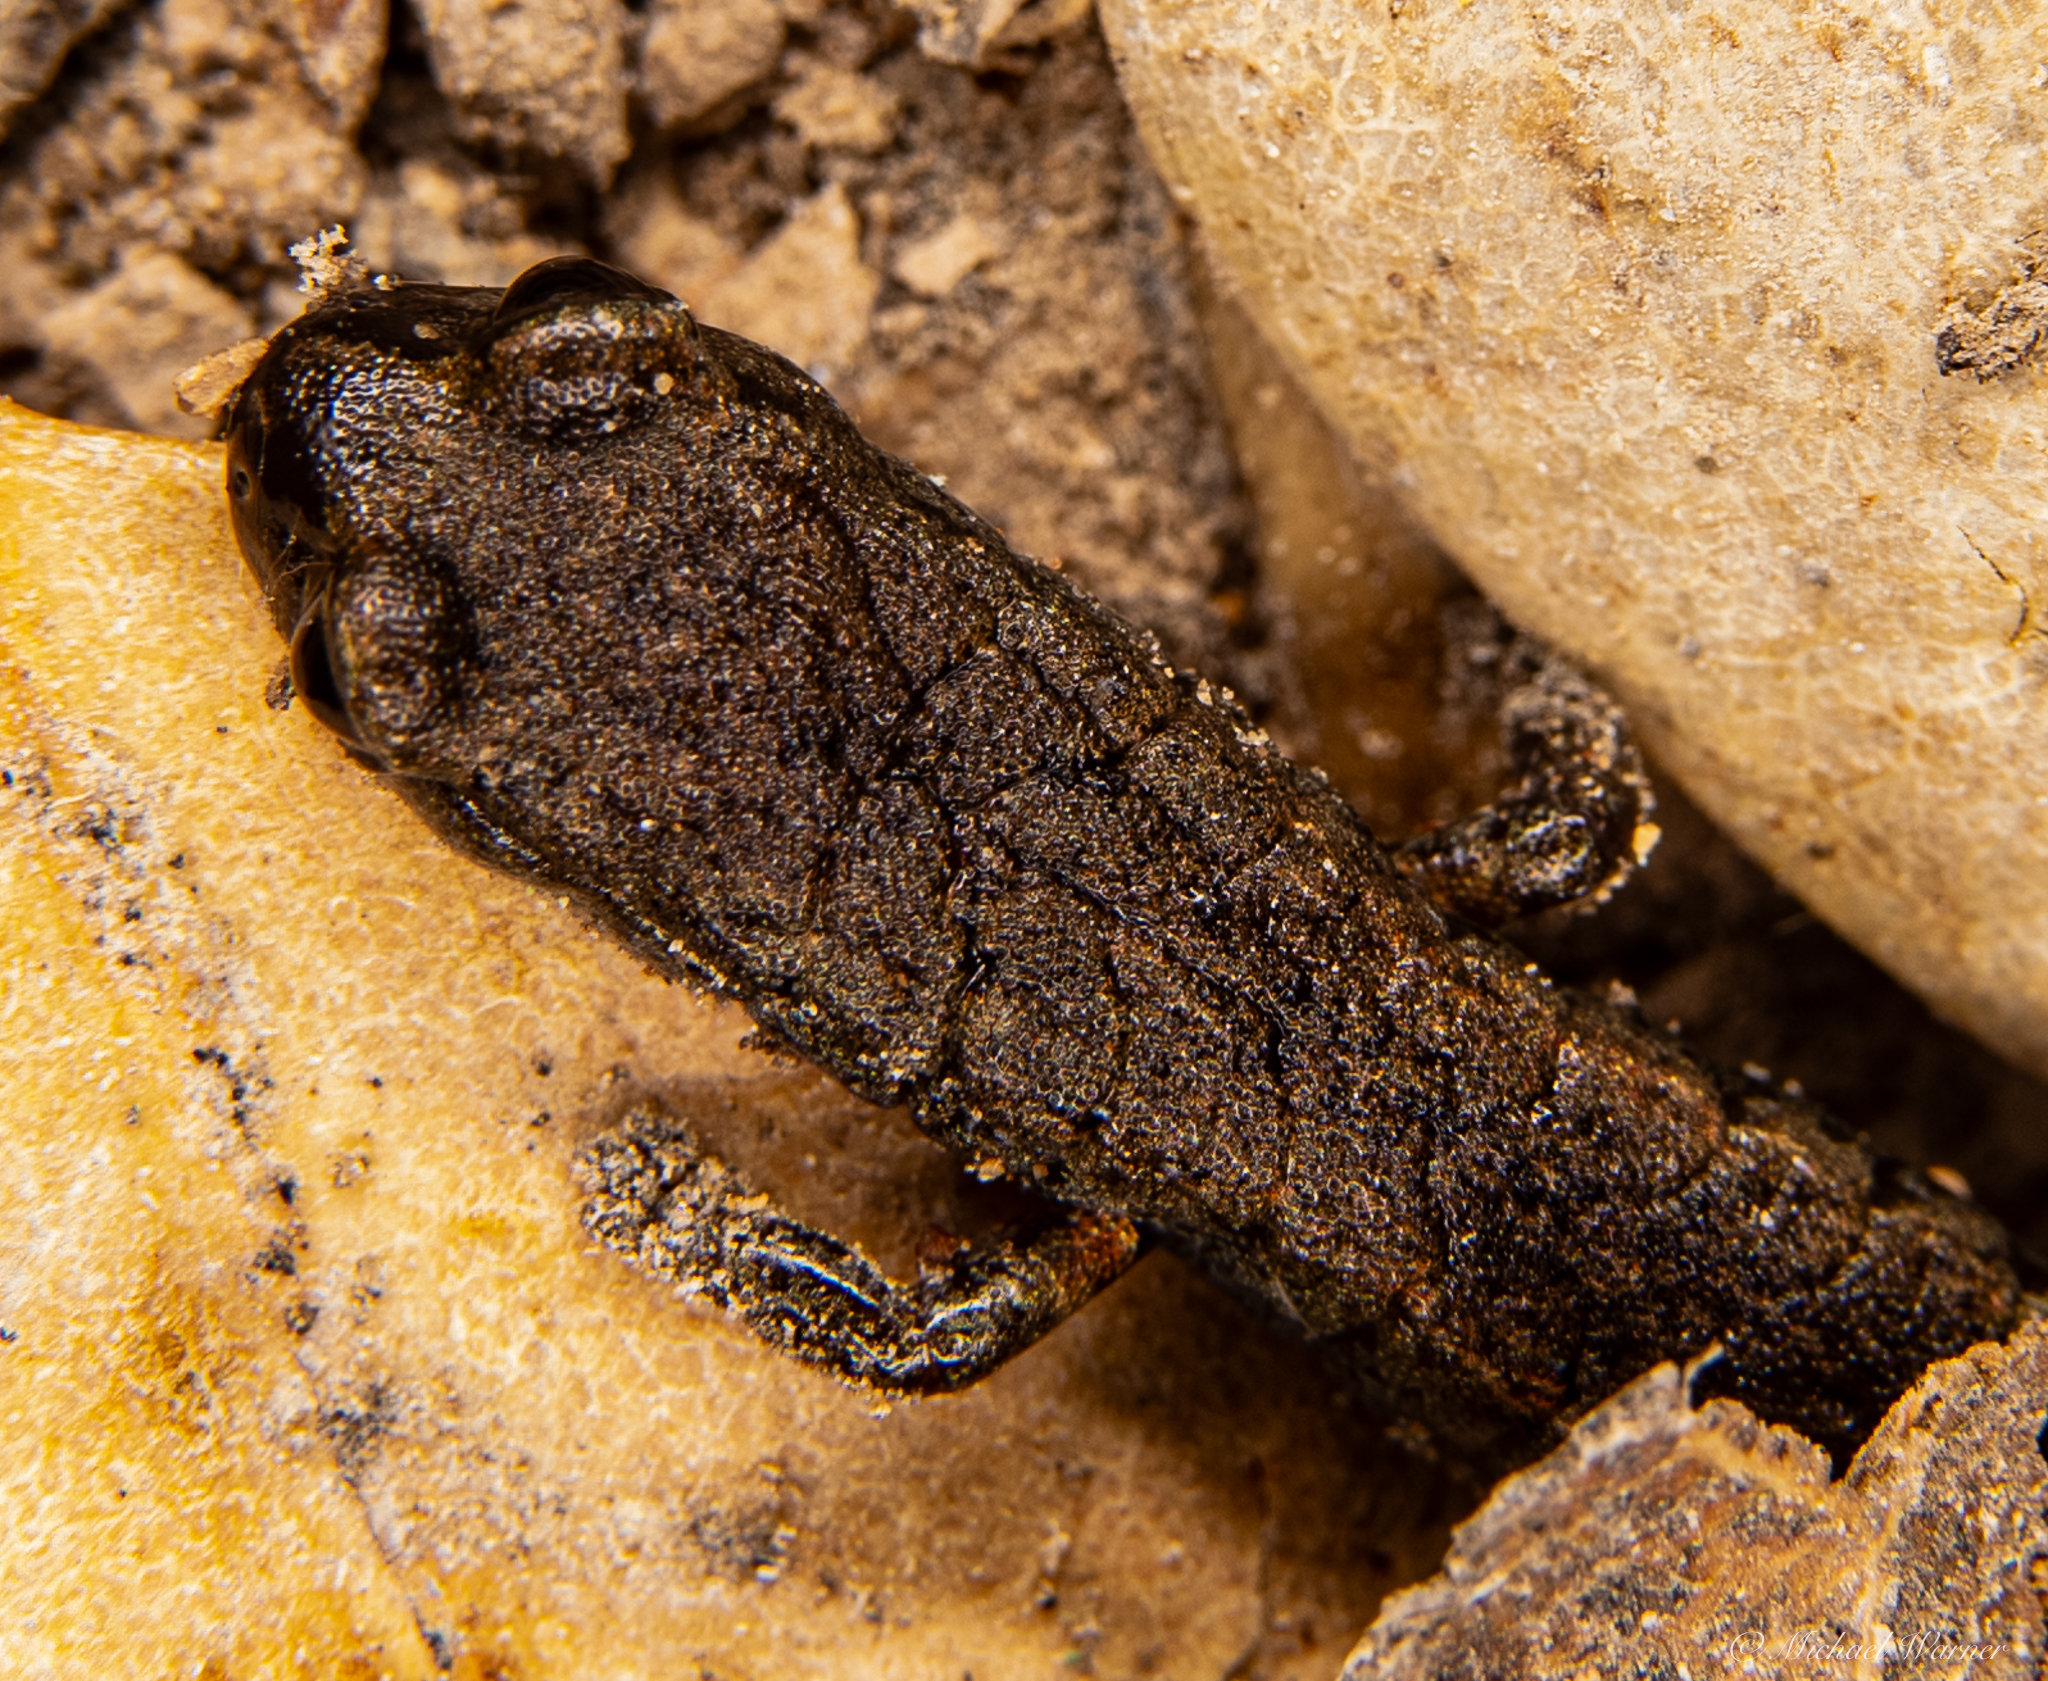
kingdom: Animalia
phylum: Chordata
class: Amphibia
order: Caudata
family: Plethodontidae
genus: Batrachoseps
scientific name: Batrachoseps attenuatus
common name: California slender salamander
